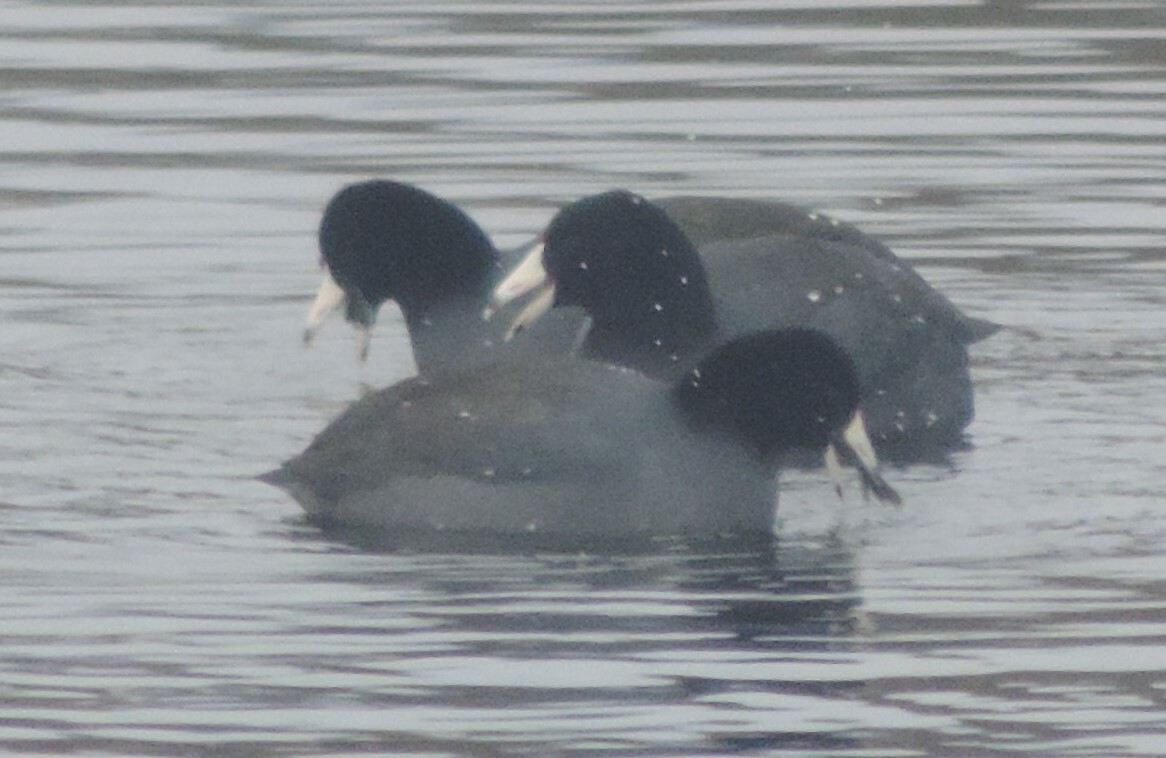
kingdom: Animalia
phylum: Chordata
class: Aves
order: Gruiformes
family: Rallidae
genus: Fulica
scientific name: Fulica americana
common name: American coot
